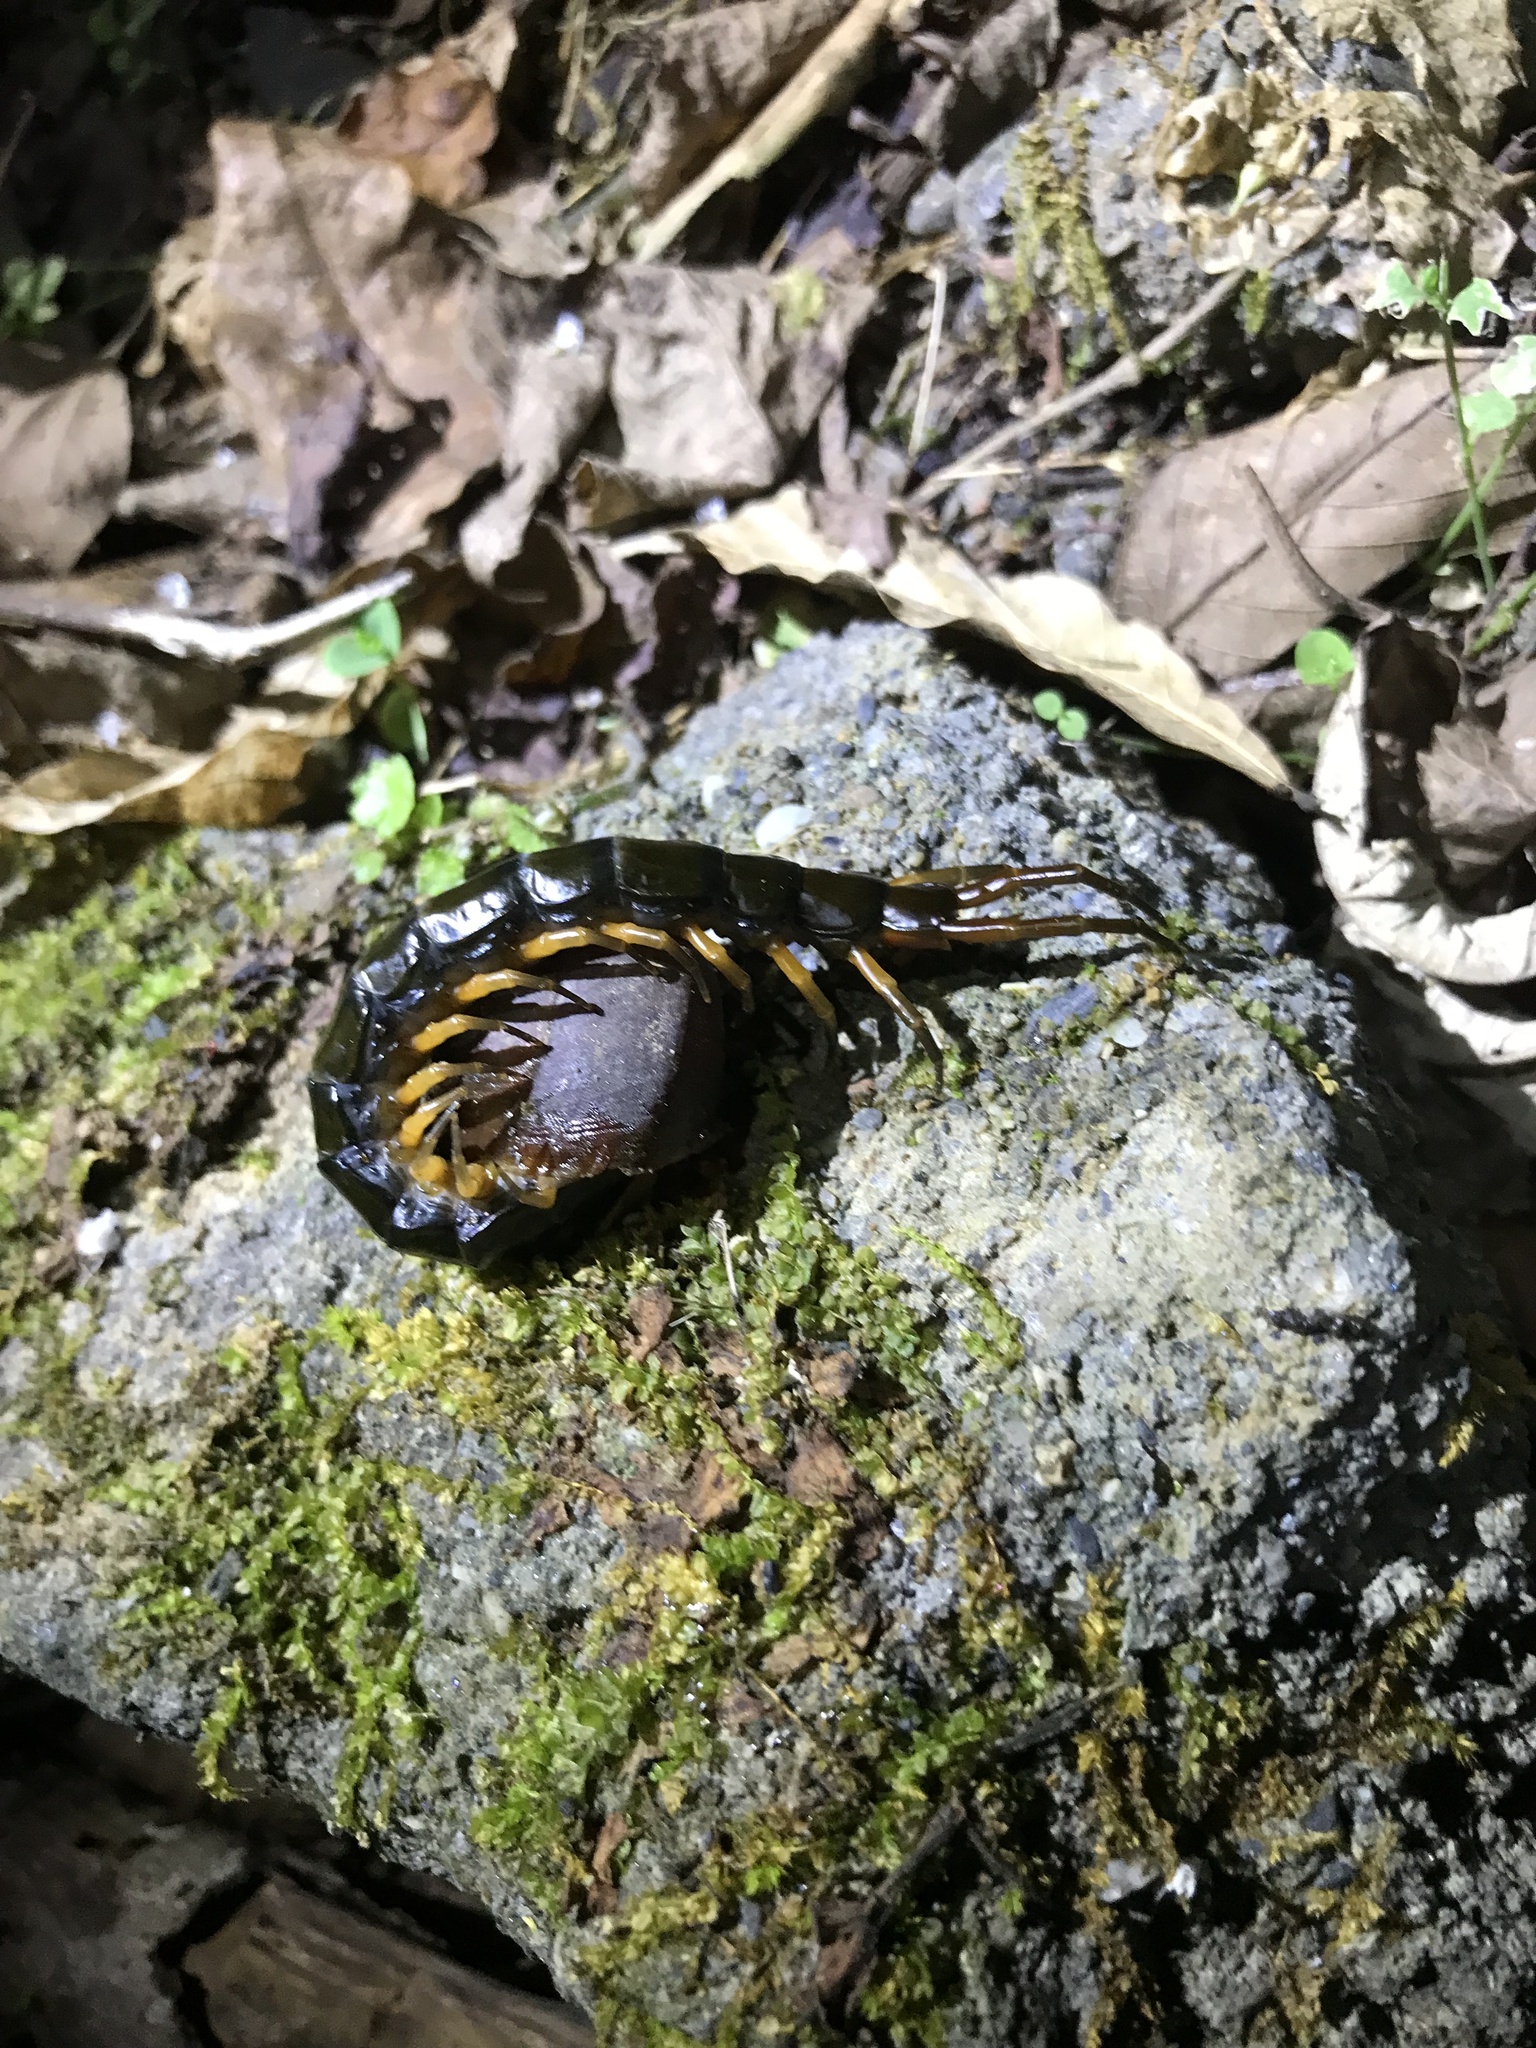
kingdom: Animalia
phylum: Arthropoda
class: Chilopoda
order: Scolopendromorpha
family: Scolopendridae
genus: Scolopendra
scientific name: Scolopendra mutilans
